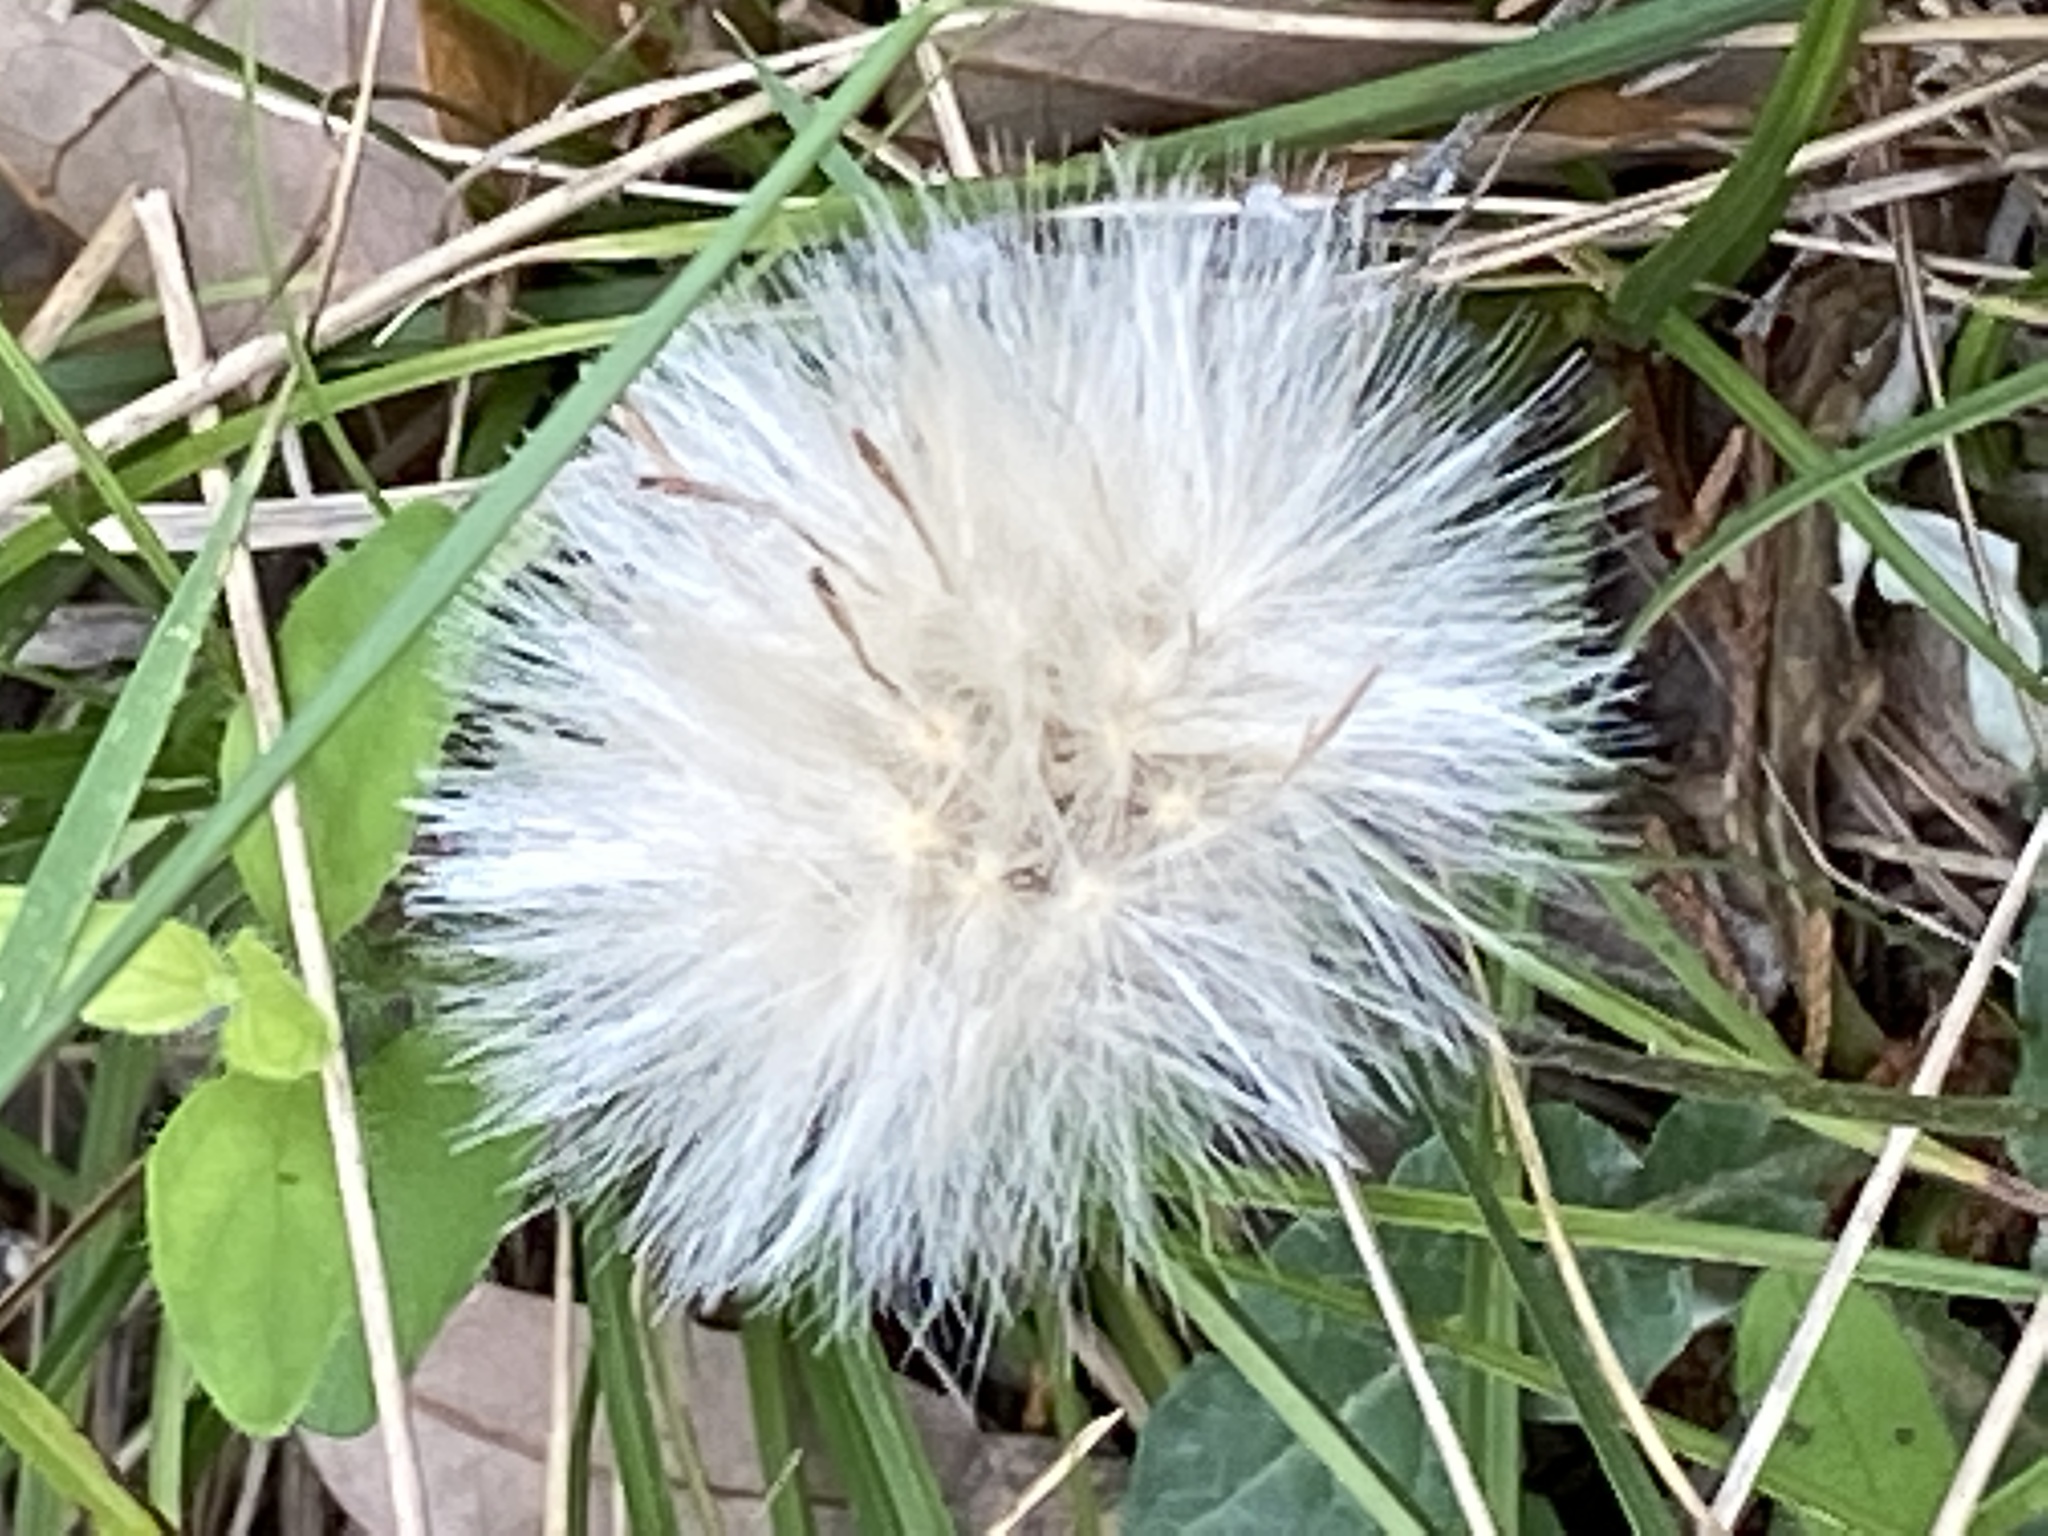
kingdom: Plantae
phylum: Tracheophyta
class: Magnoliopsida
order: Asterales
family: Asteraceae
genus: Chaptalia
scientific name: Chaptalia texana
